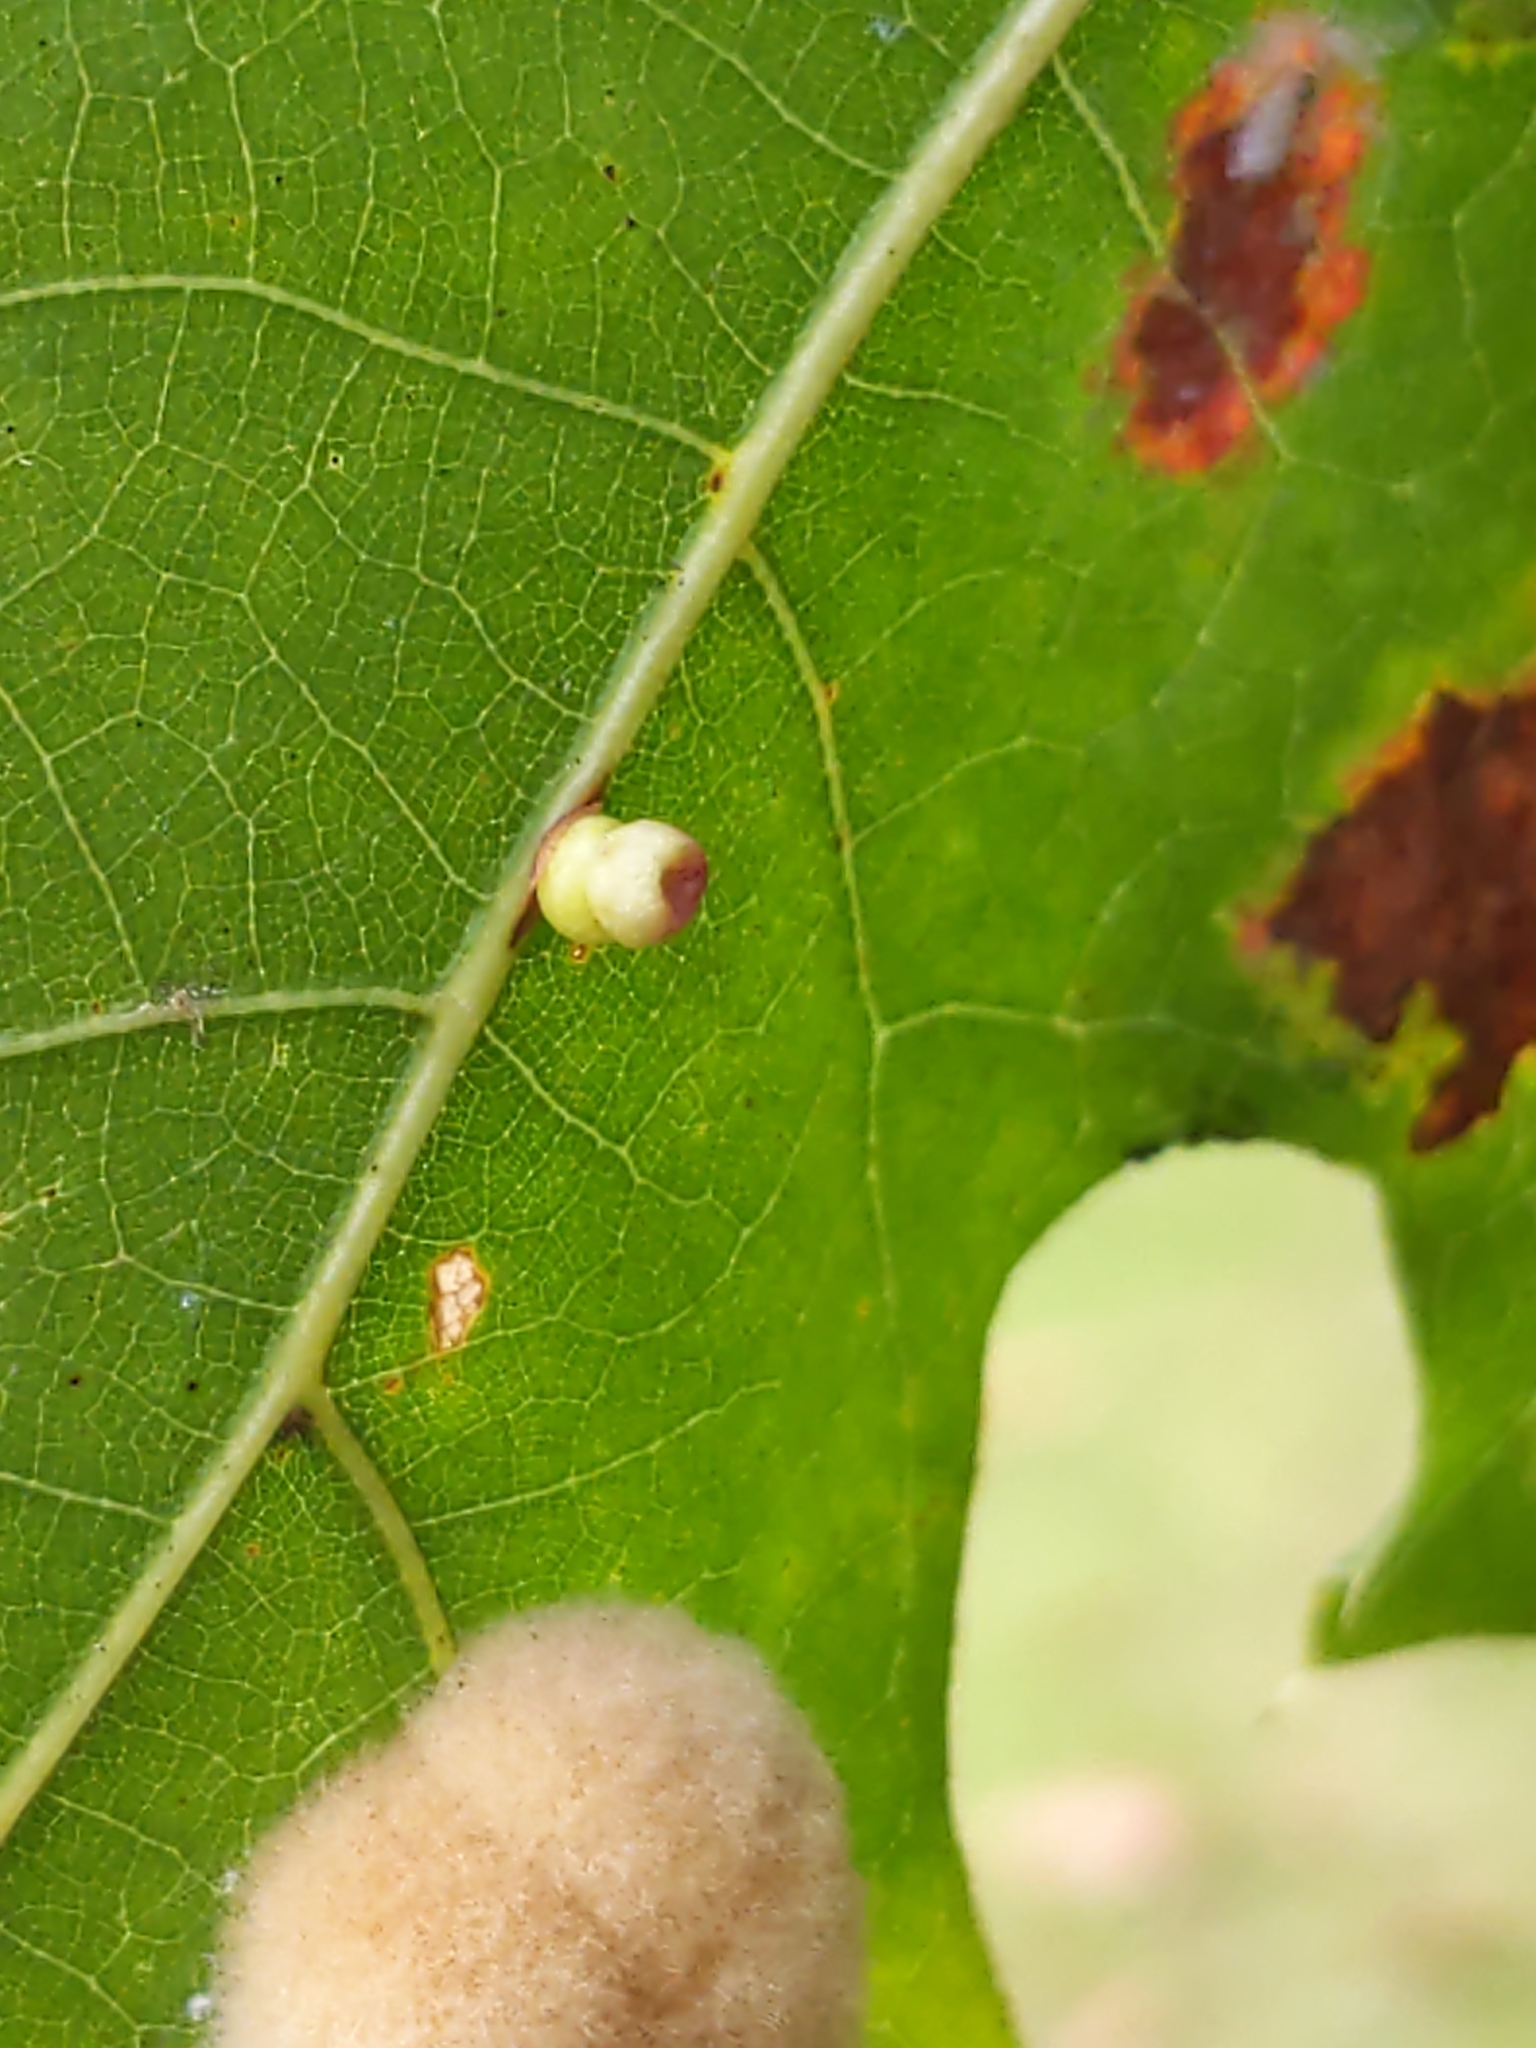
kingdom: Animalia
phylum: Arthropoda
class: Insecta
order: Hymenoptera
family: Cynipidae
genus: Kokkocynips
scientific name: Kokkocynips rileyi
